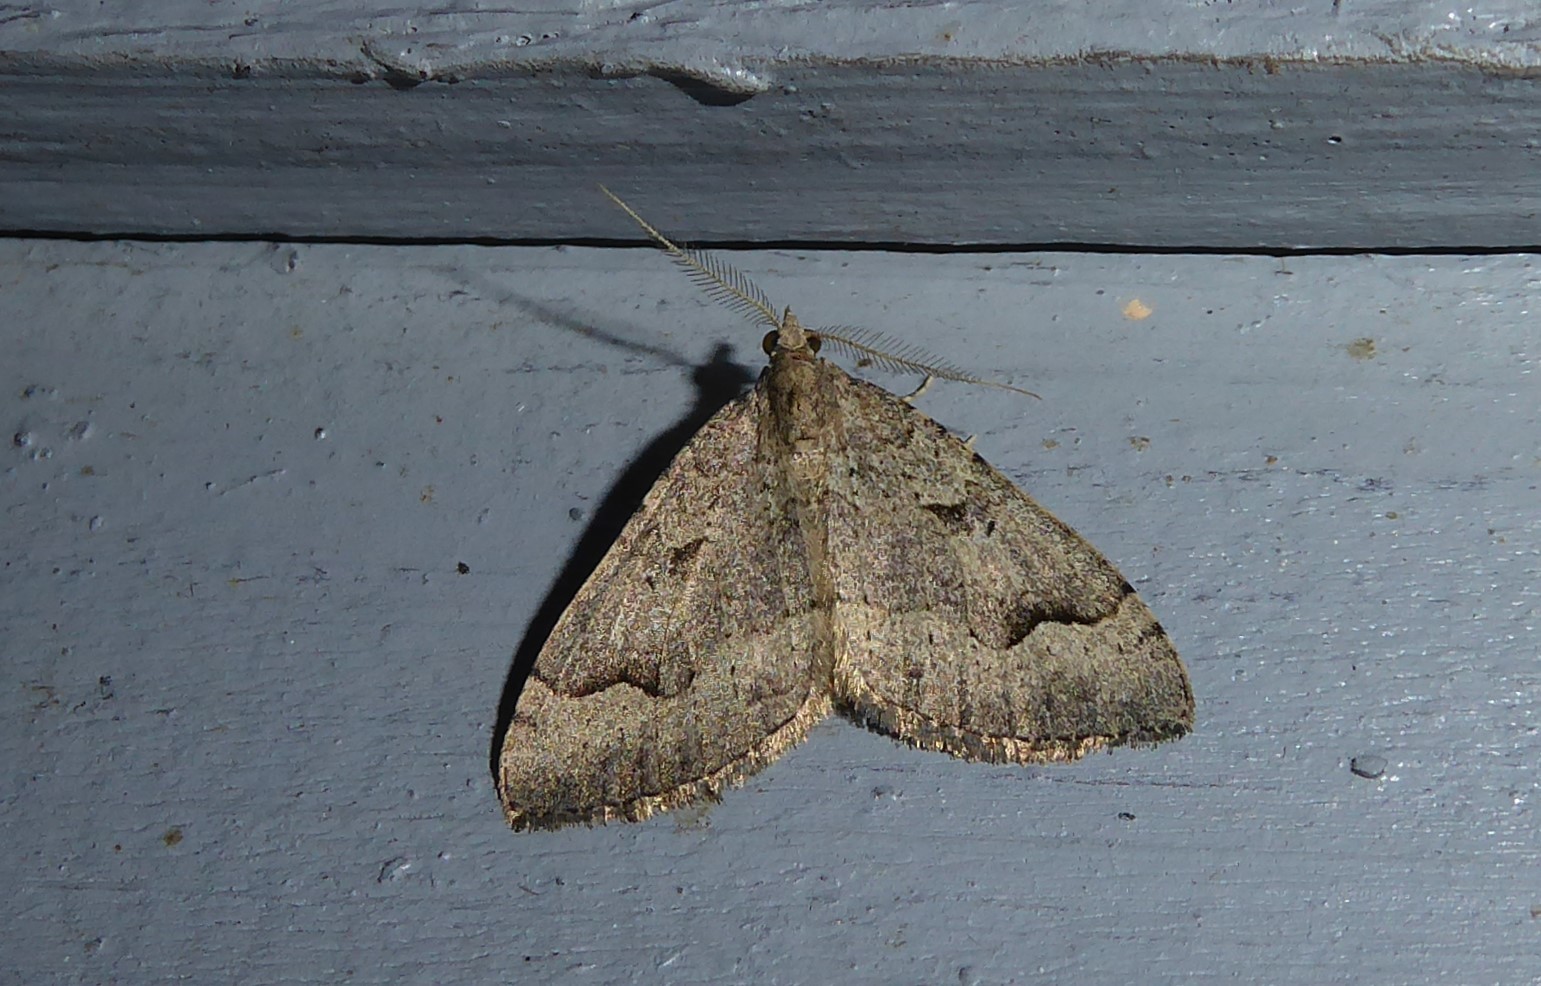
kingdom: Animalia
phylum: Arthropoda
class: Insecta
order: Lepidoptera
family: Geometridae
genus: Epyaxa
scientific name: Epyaxa rosearia
